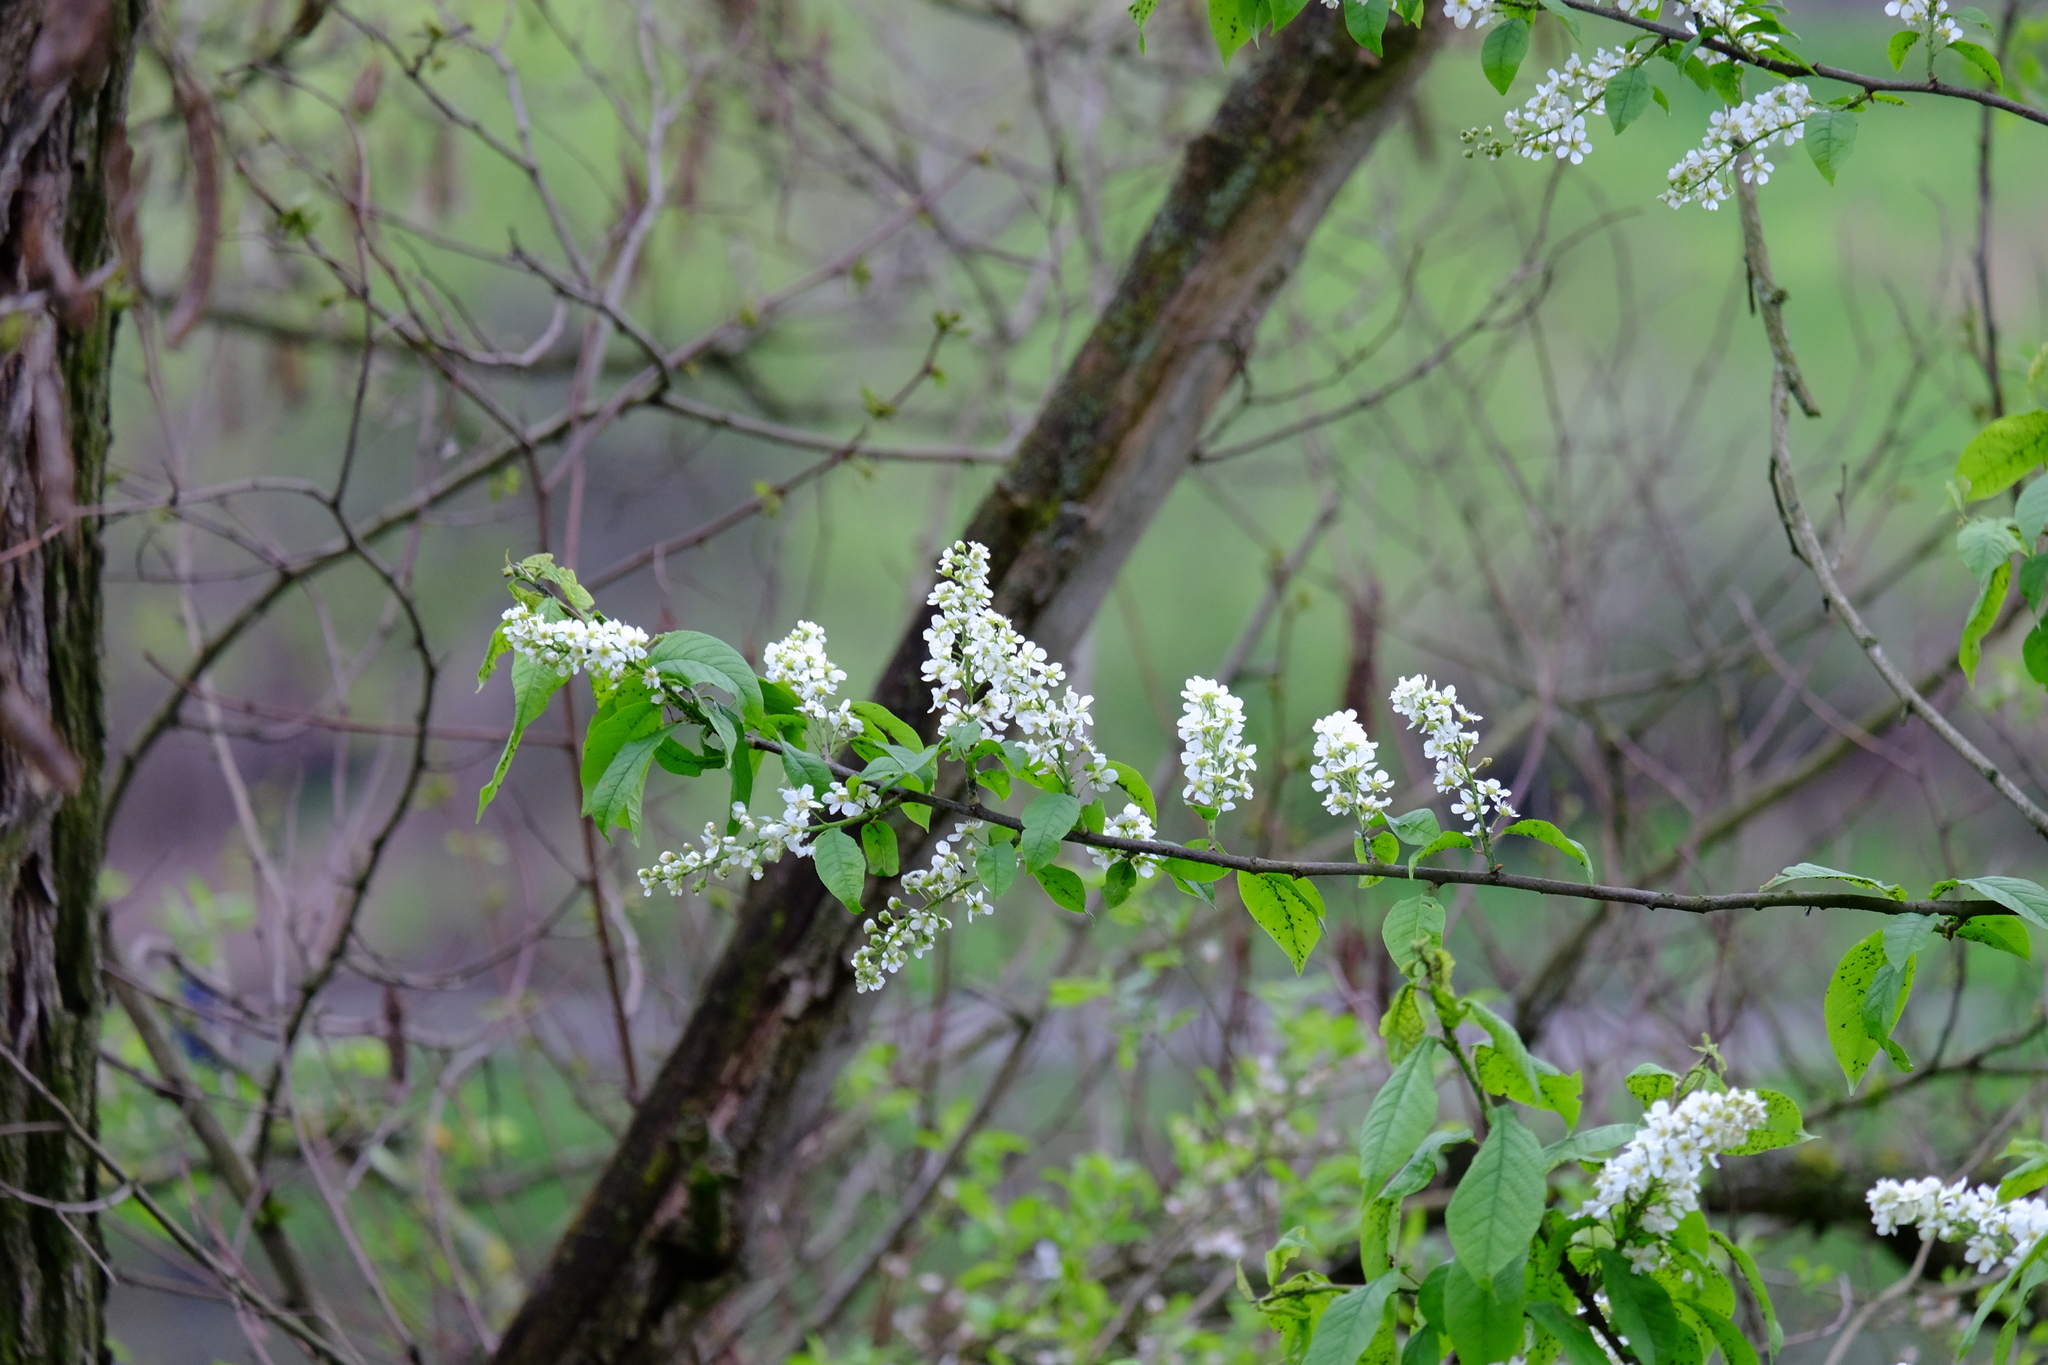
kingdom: Plantae
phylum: Tracheophyta
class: Magnoliopsida
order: Rosales
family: Rosaceae
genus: Prunus
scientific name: Prunus padus
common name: Bird cherry
